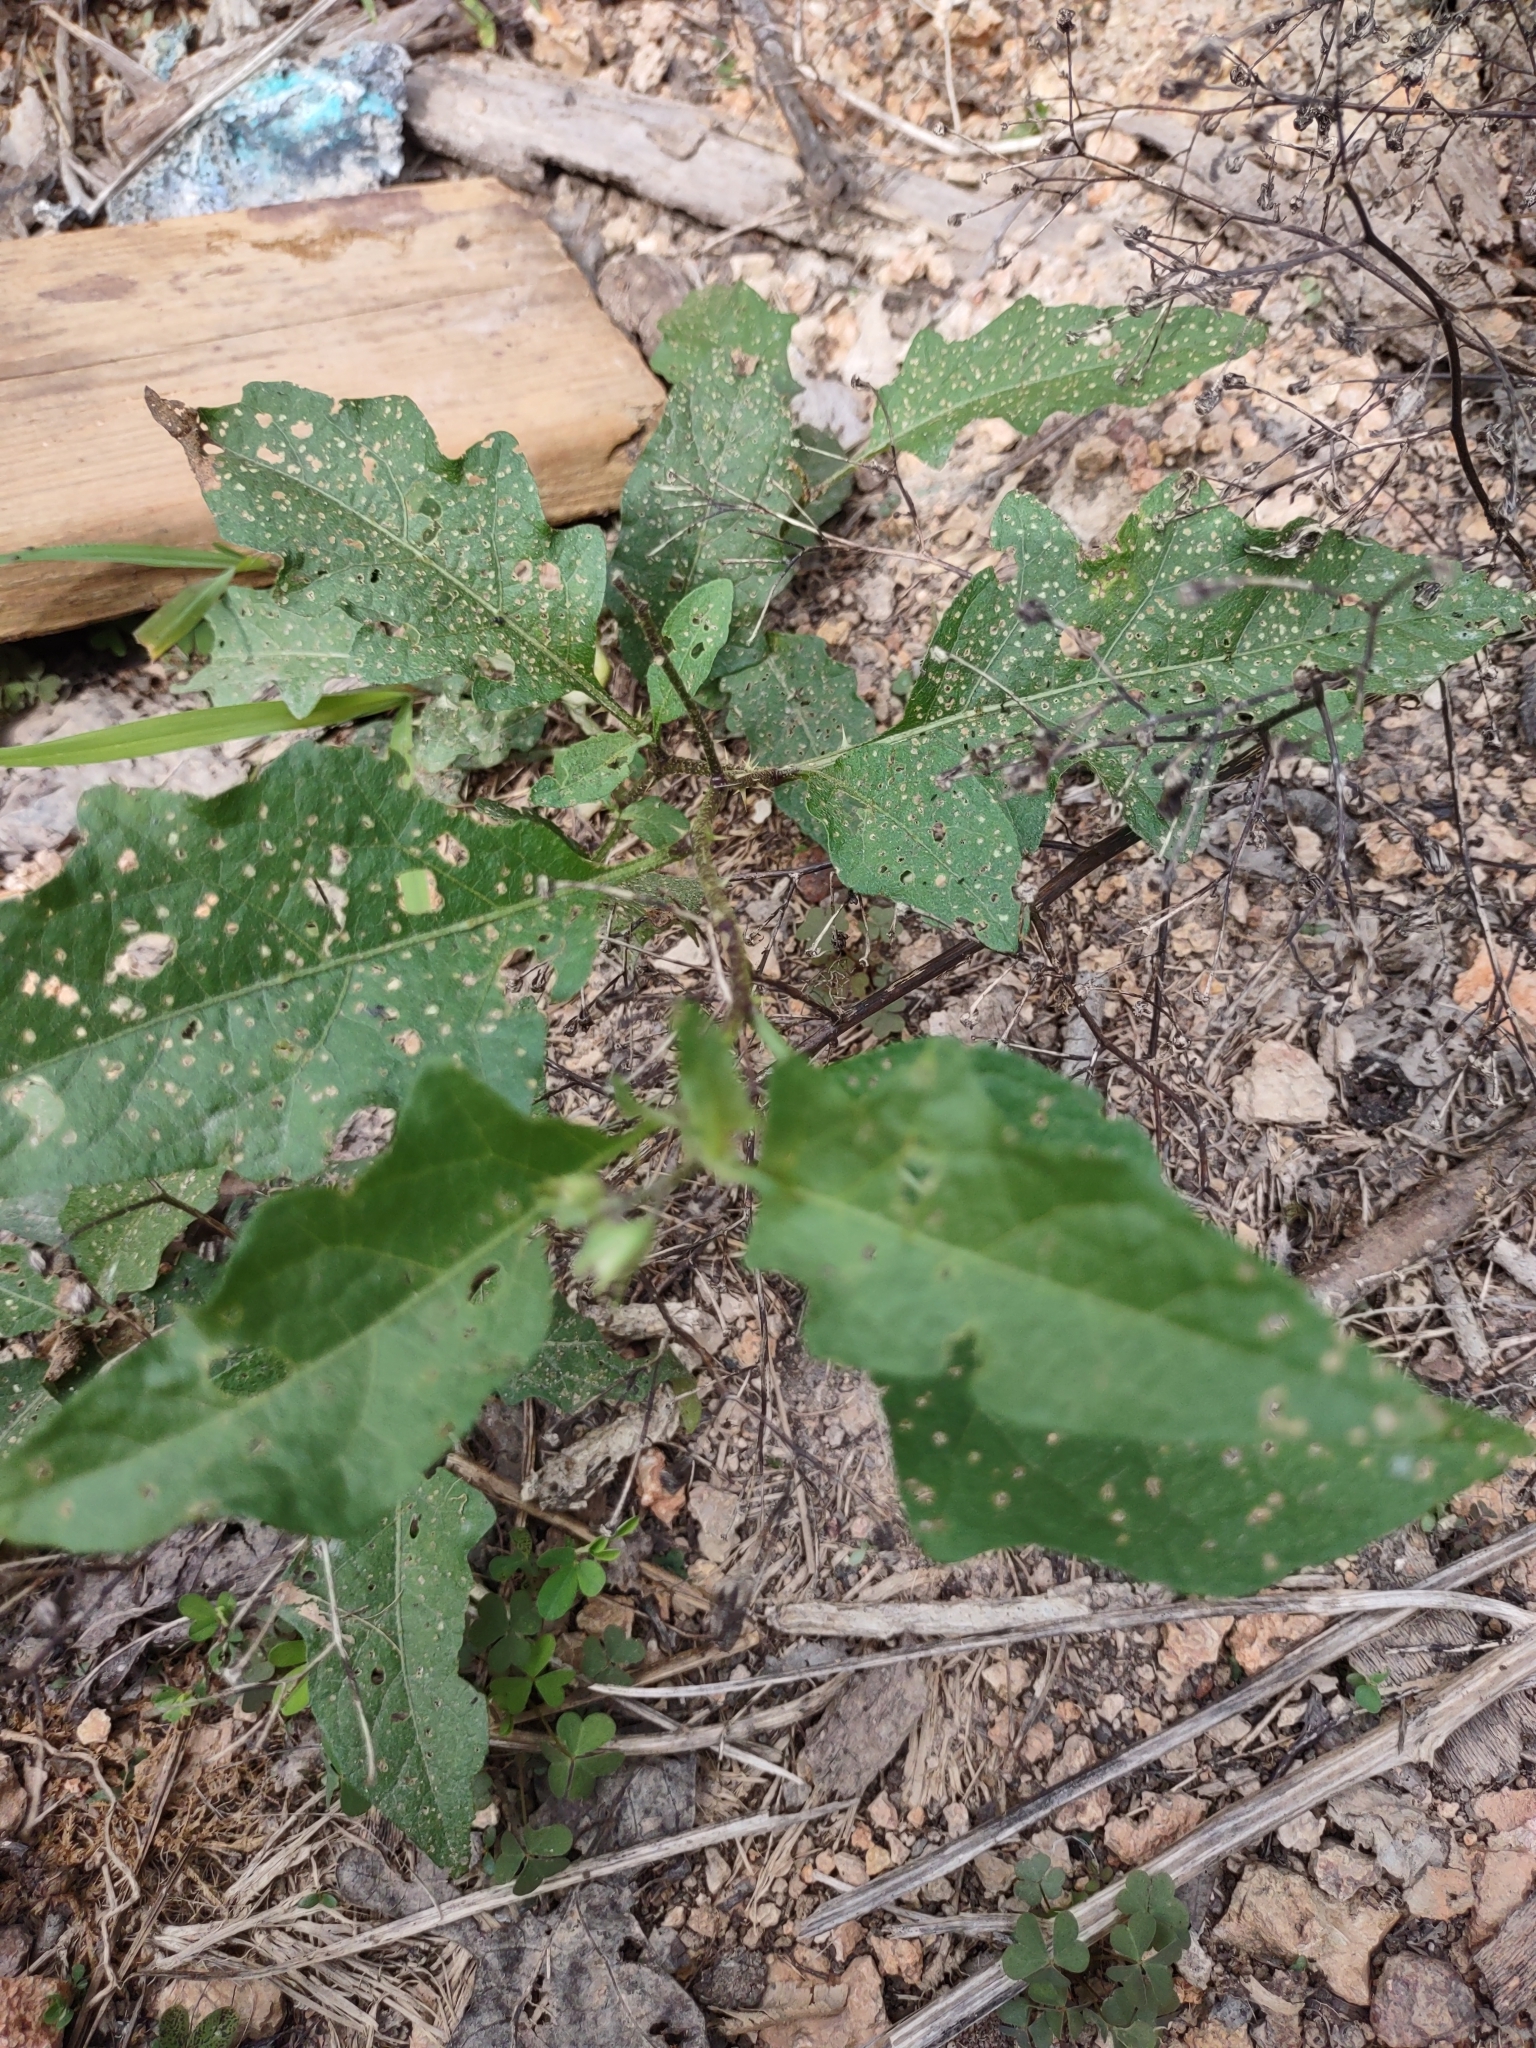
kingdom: Plantae
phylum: Tracheophyta
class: Magnoliopsida
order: Solanales
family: Solanaceae
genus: Solanum
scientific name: Solanum carolinense
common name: Horse-nettle
